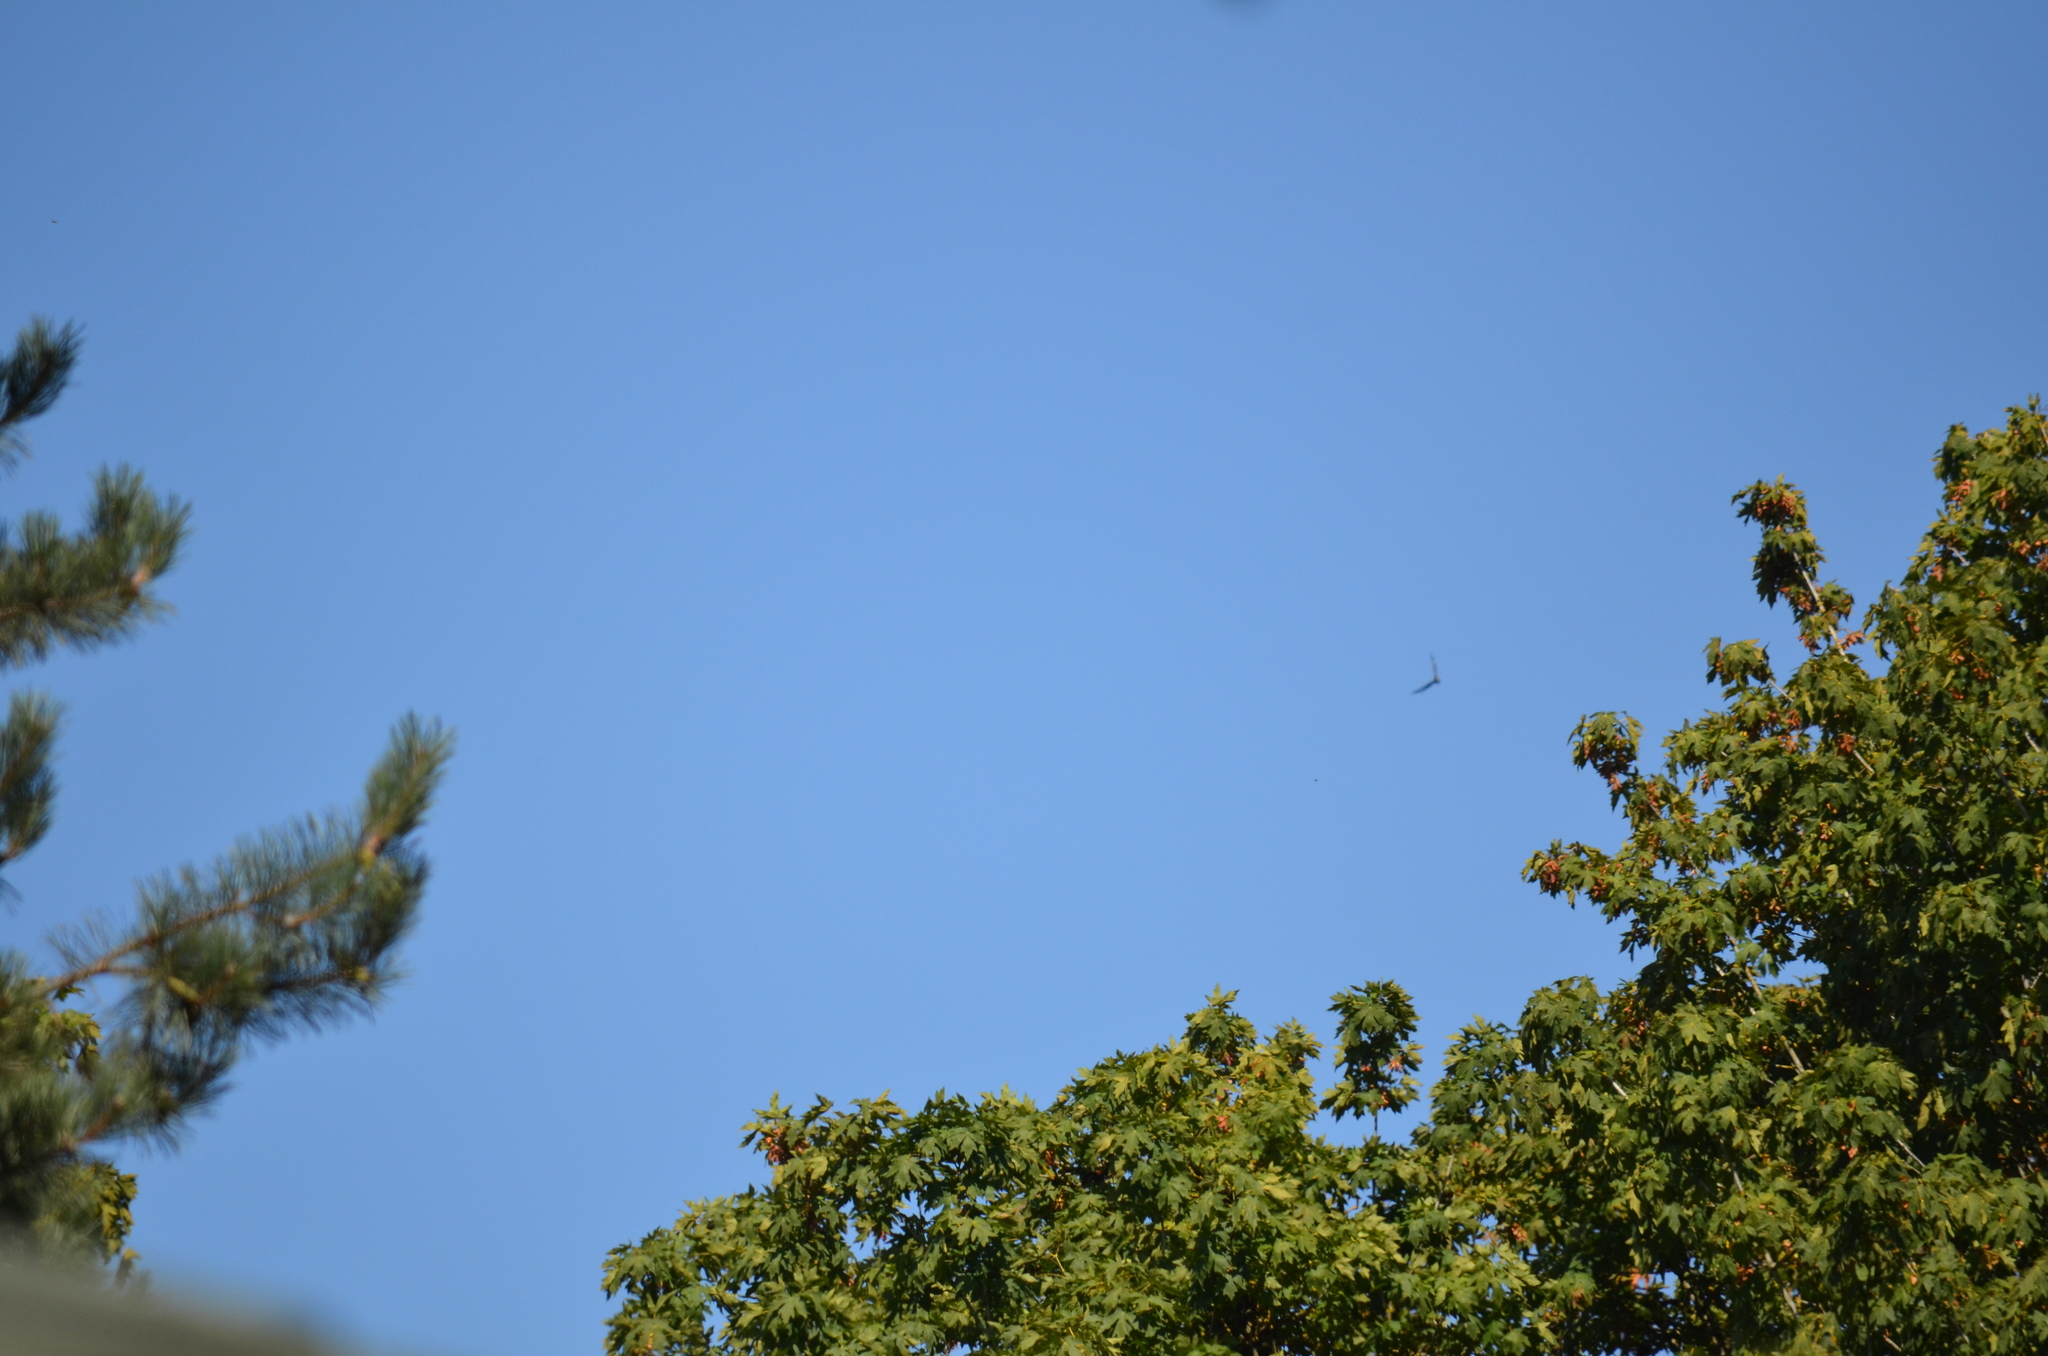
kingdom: Animalia
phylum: Chordata
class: Aves
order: Caprimulgiformes
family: Caprimulgidae
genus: Chordeiles
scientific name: Chordeiles minor
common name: Common nighthawk
